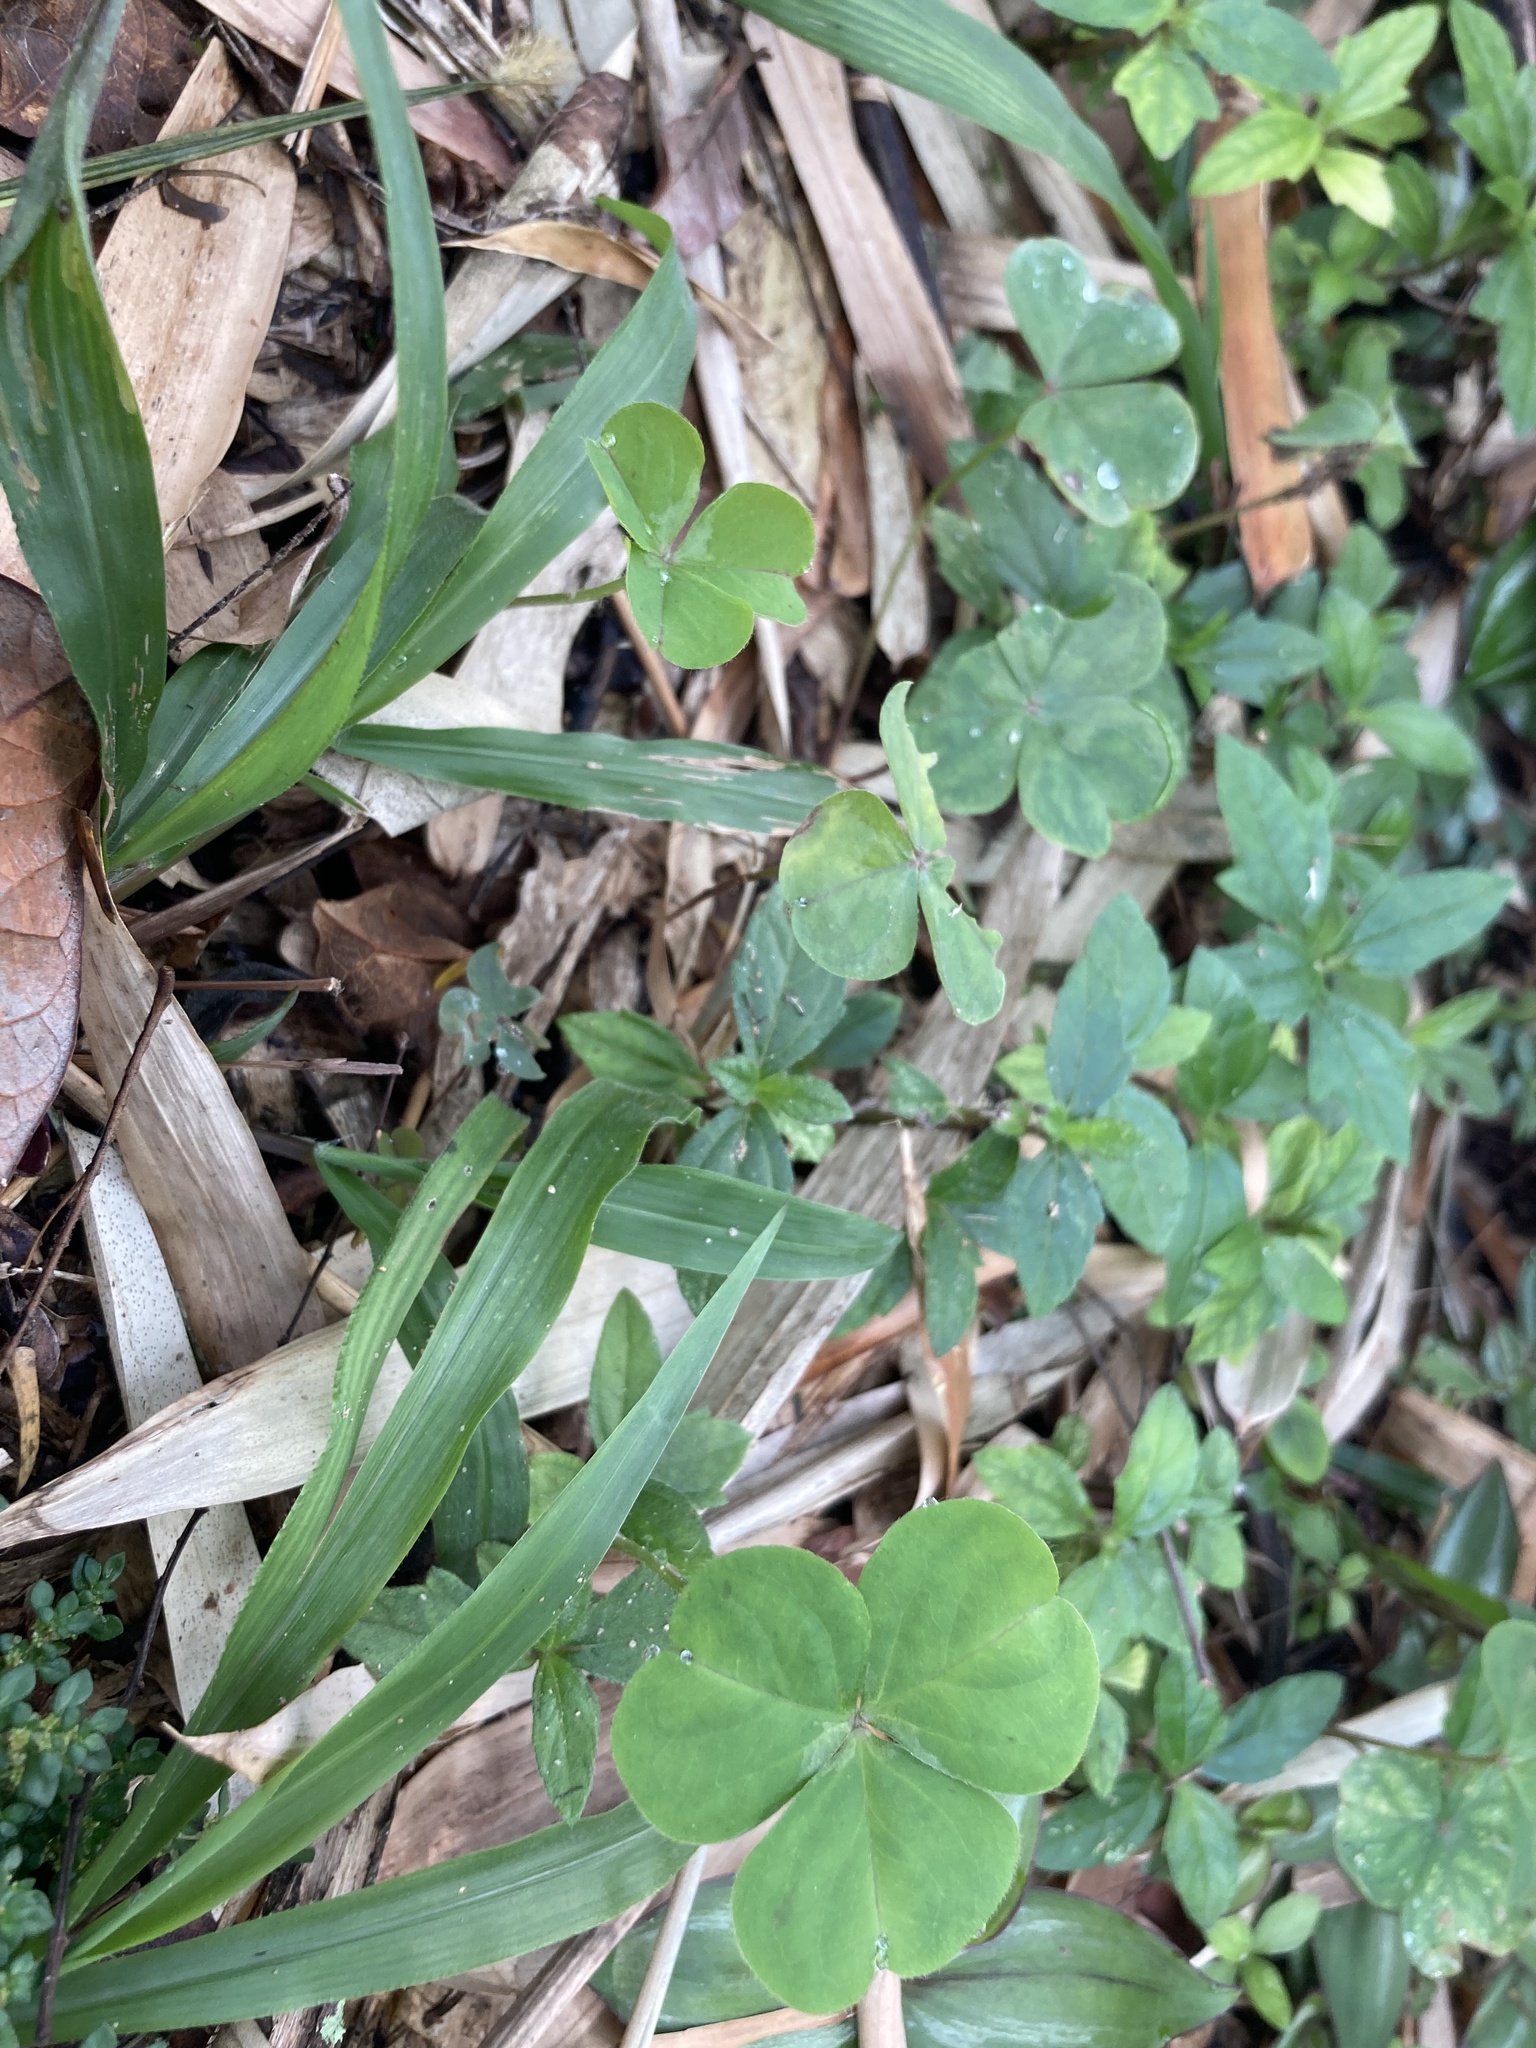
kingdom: Plantae
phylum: Tracheophyta
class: Magnoliopsida
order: Oxalidales
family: Oxalidaceae
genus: Oxalis
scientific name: Oxalis debilis
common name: Large-flowered pink-sorrel
